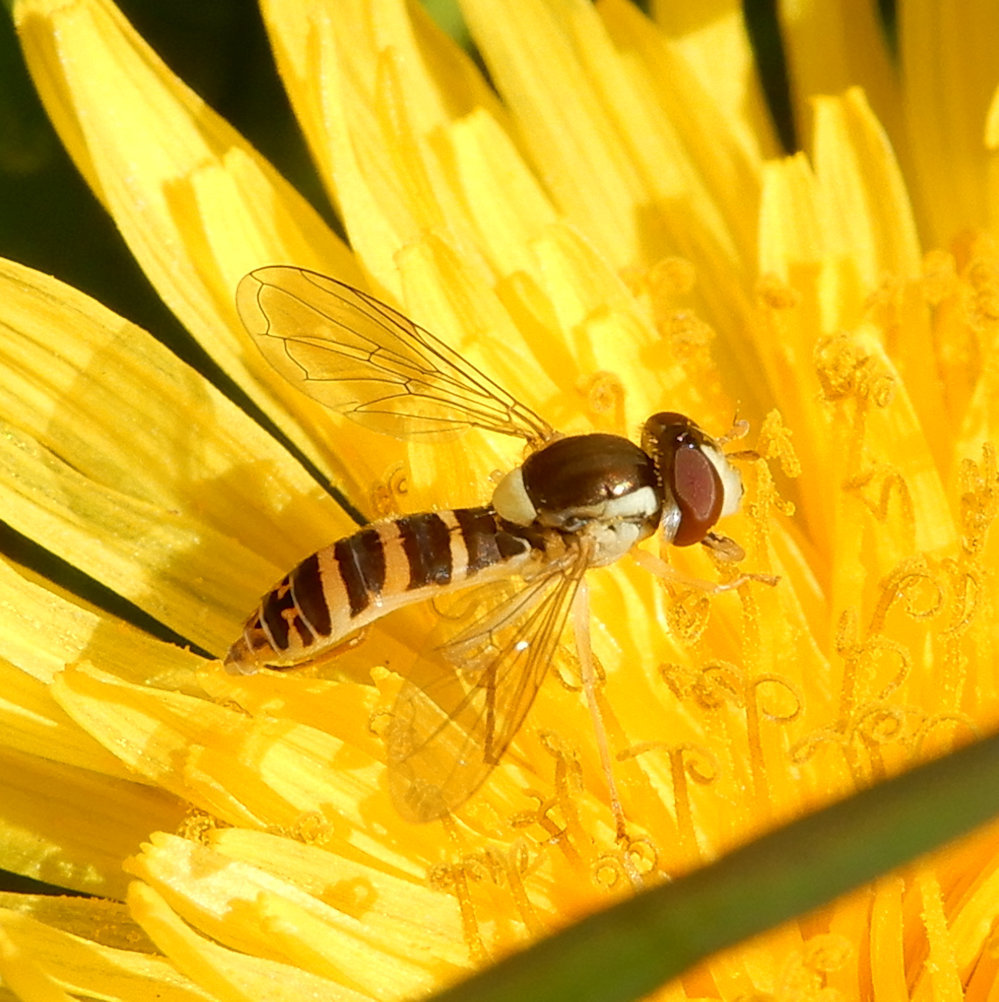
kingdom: Animalia
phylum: Arthropoda
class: Insecta
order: Diptera
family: Syrphidae
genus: Sphaerophoria
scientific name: Sphaerophoria
